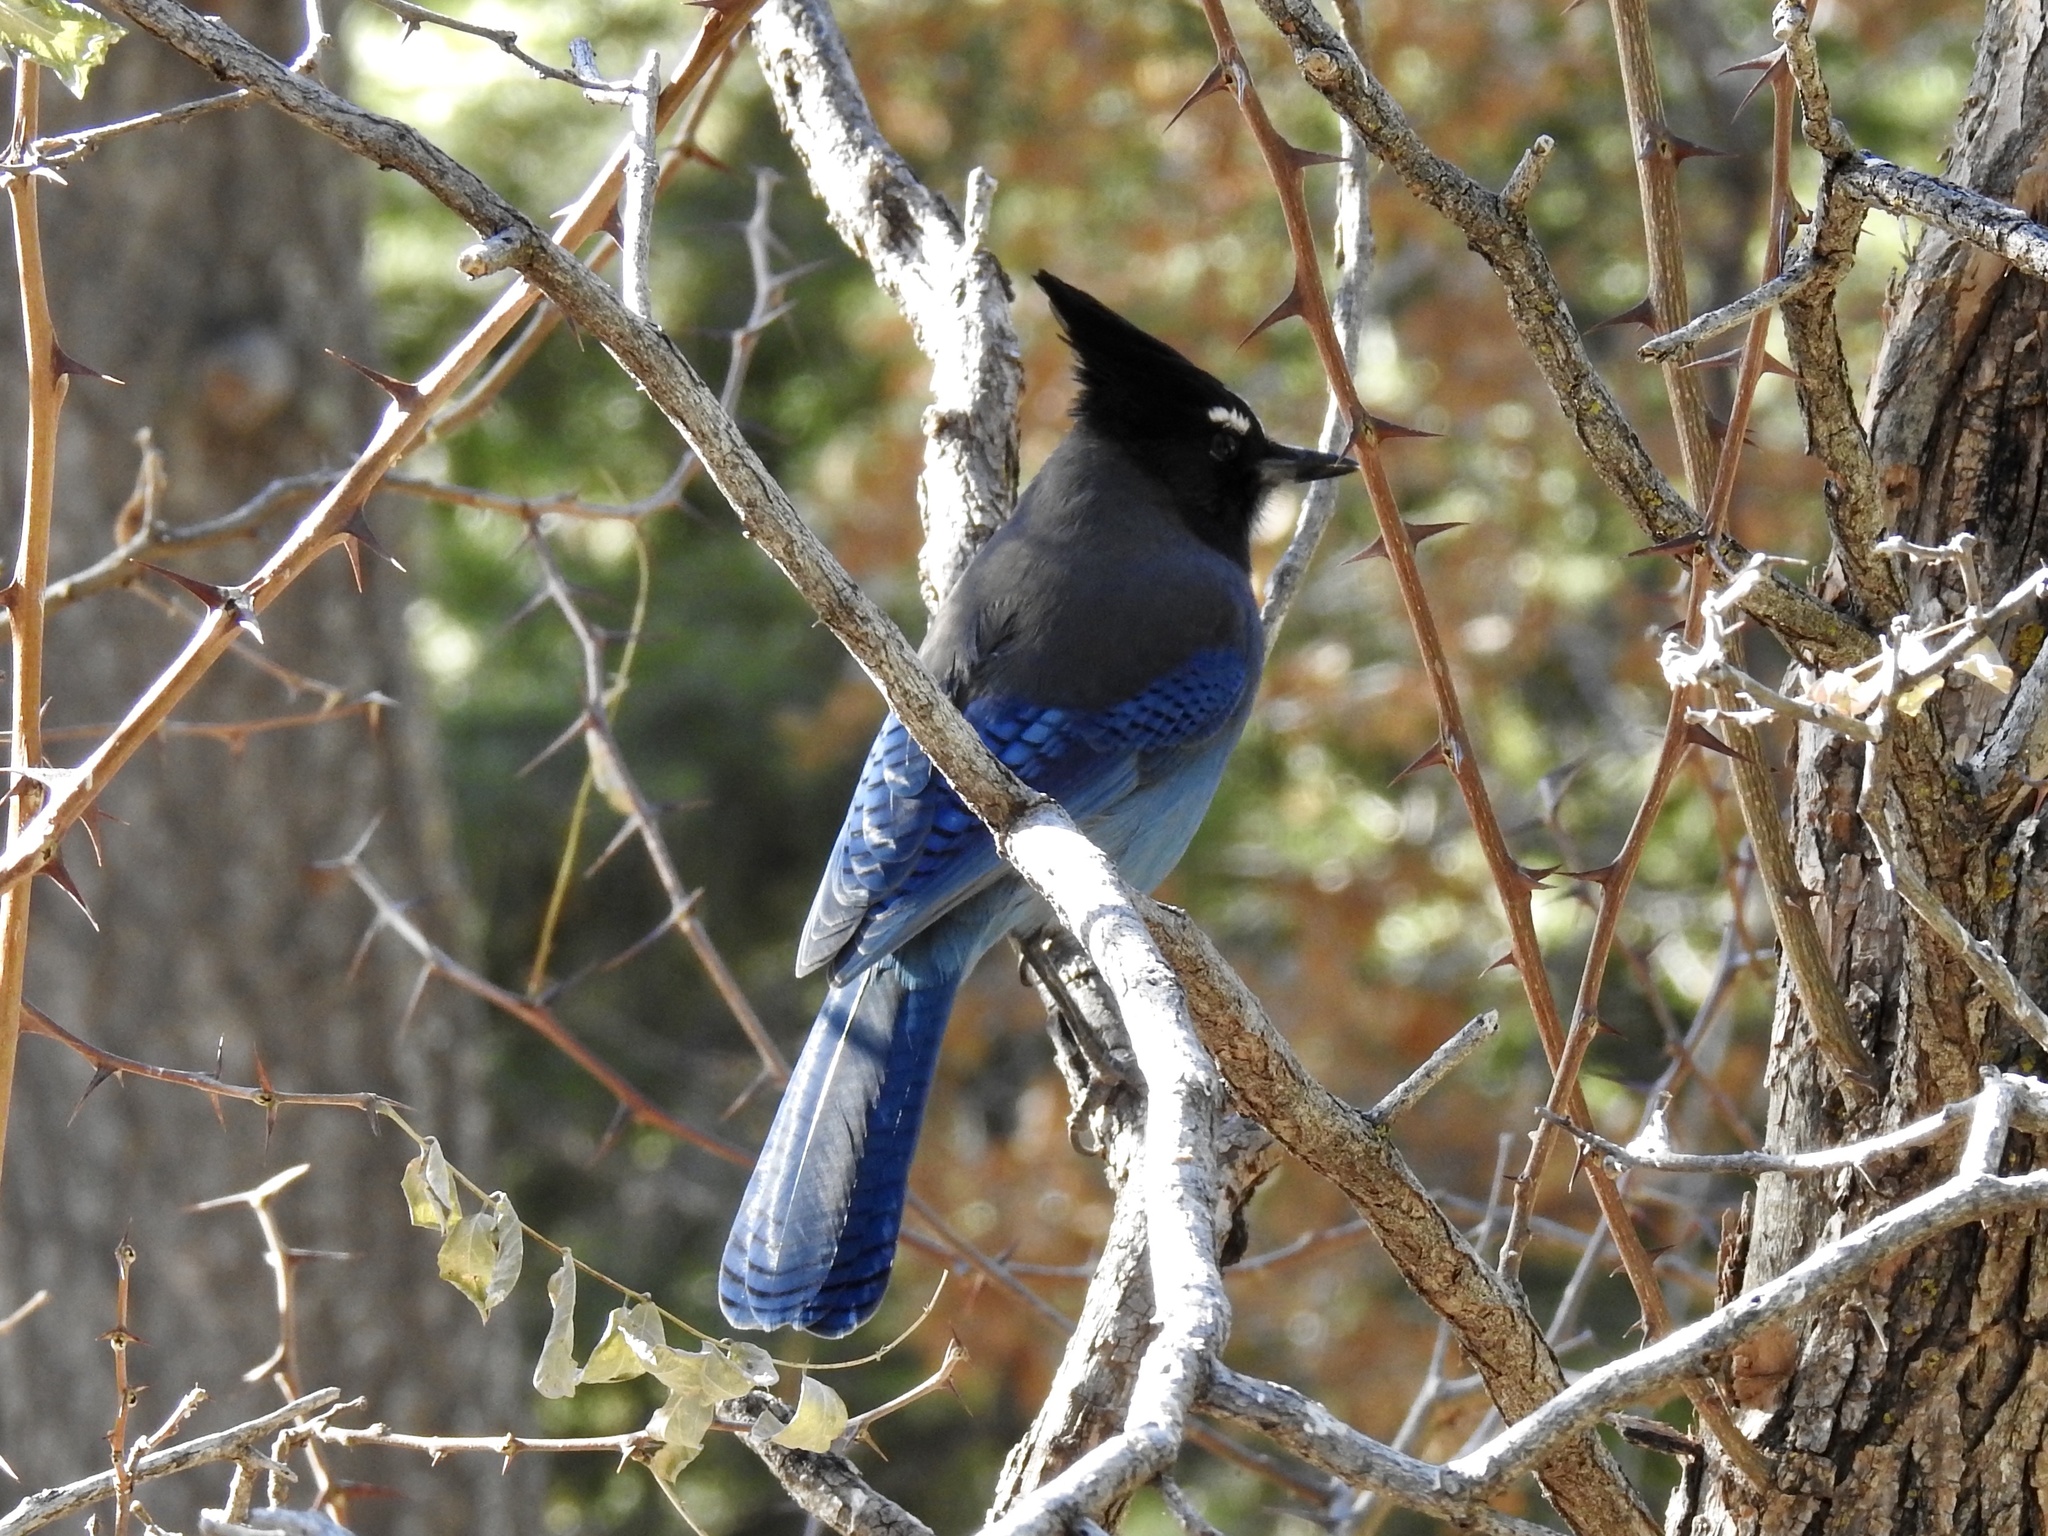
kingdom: Animalia
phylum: Chordata
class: Aves
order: Passeriformes
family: Corvidae
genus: Cyanocitta
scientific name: Cyanocitta stelleri
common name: Steller's jay
